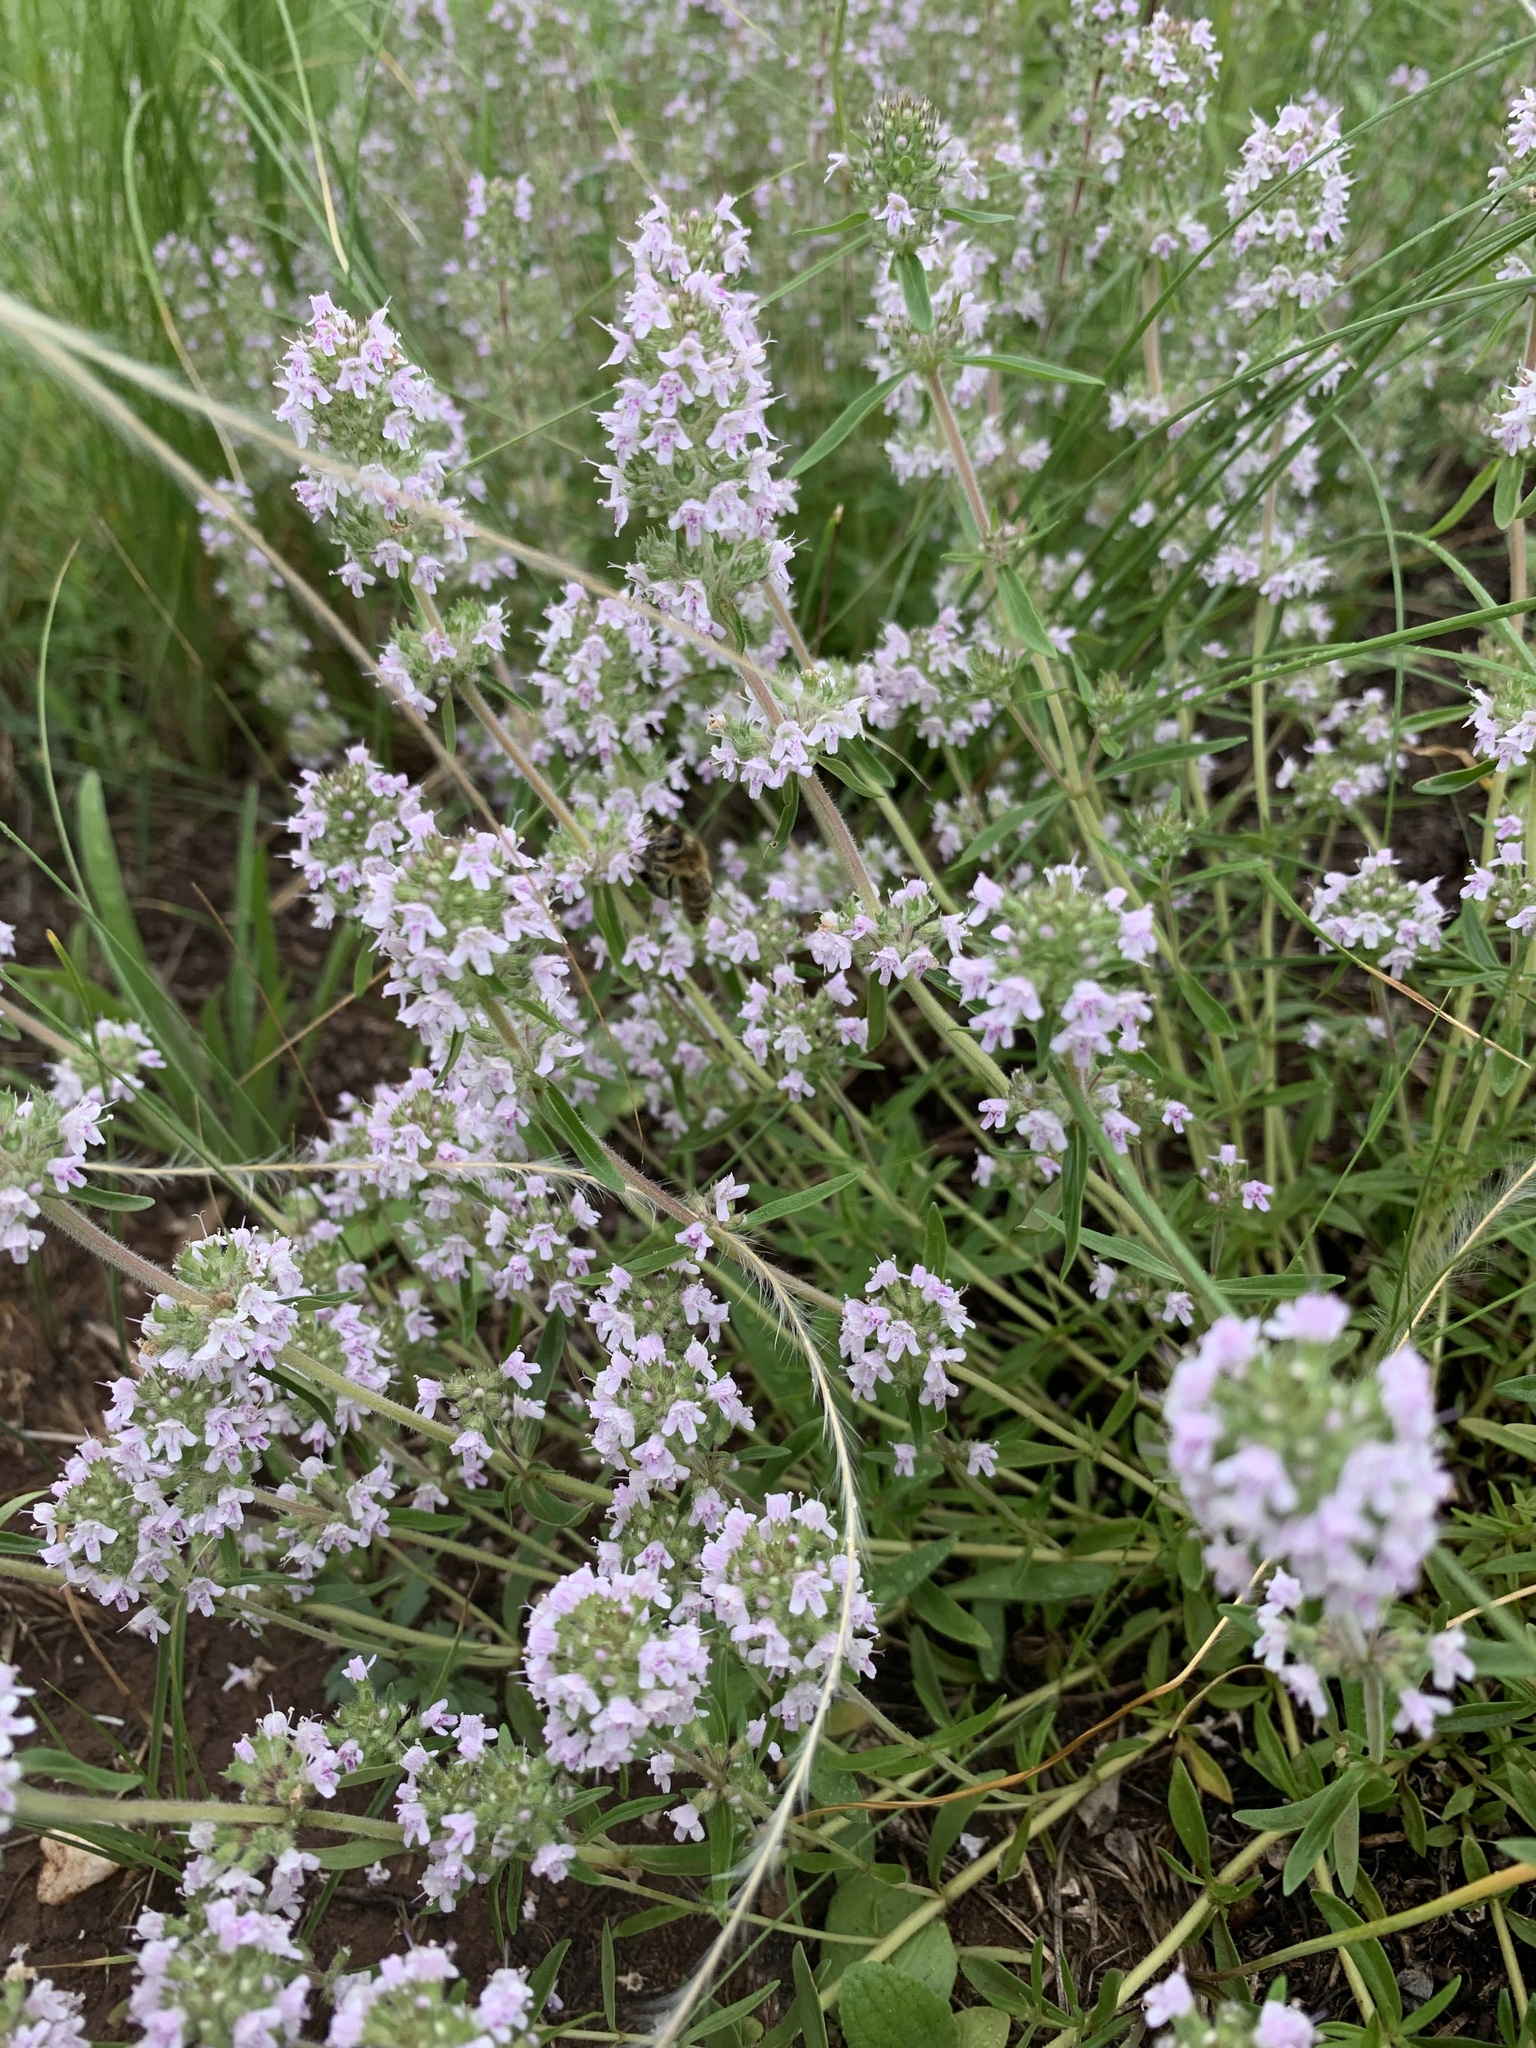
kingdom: Plantae
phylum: Tracheophyta
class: Magnoliopsida
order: Lamiales
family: Lamiaceae
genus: Thymus
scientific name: Thymus pannonicus
